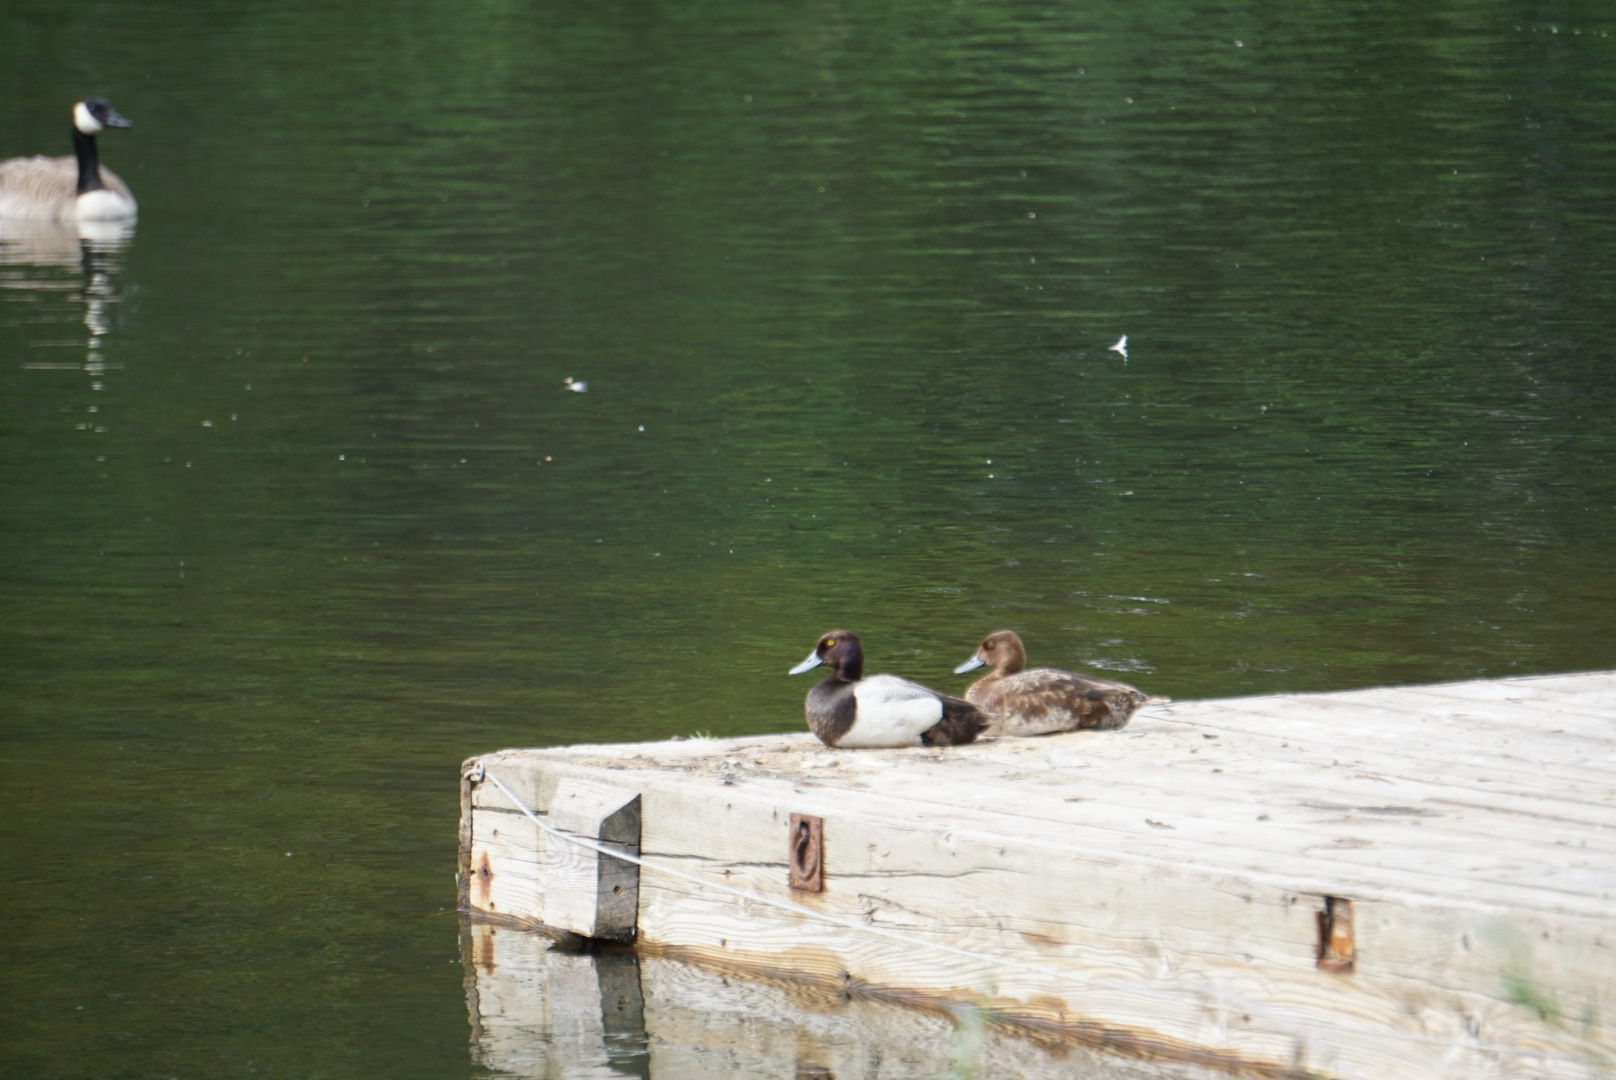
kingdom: Animalia
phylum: Chordata
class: Aves
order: Anseriformes
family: Anatidae
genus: Aythya
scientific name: Aythya affinis
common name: Lesser scaup
